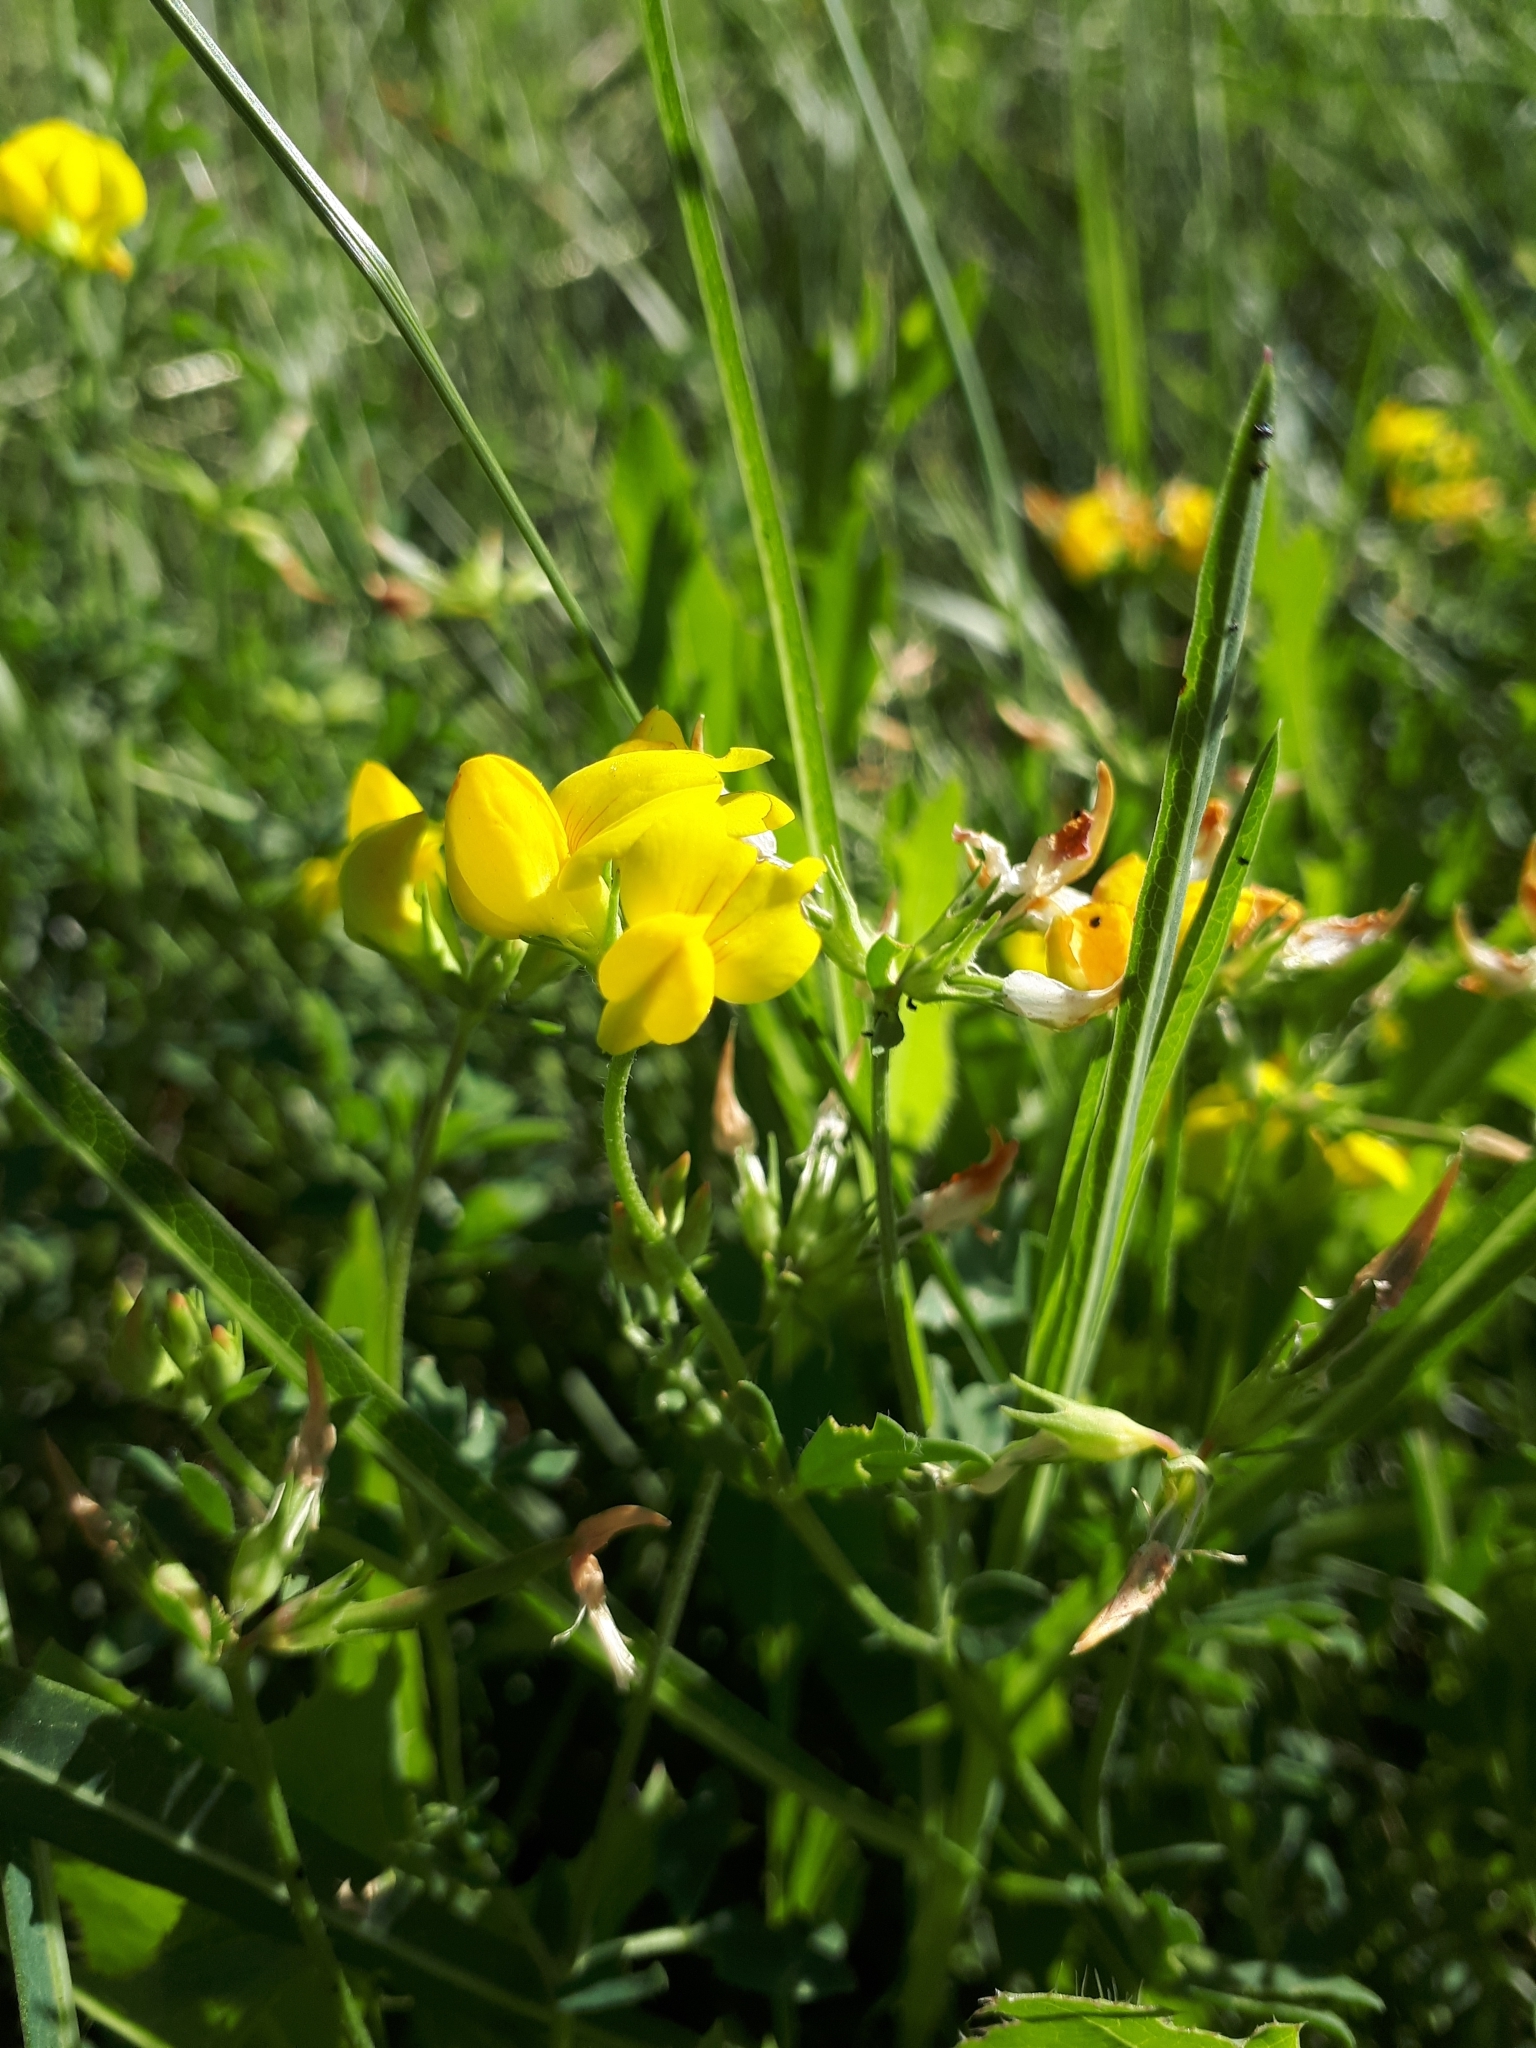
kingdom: Plantae
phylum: Tracheophyta
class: Magnoliopsida
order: Fabales
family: Fabaceae
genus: Lotus
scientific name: Lotus corniculatus
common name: Common bird's-foot-trefoil
